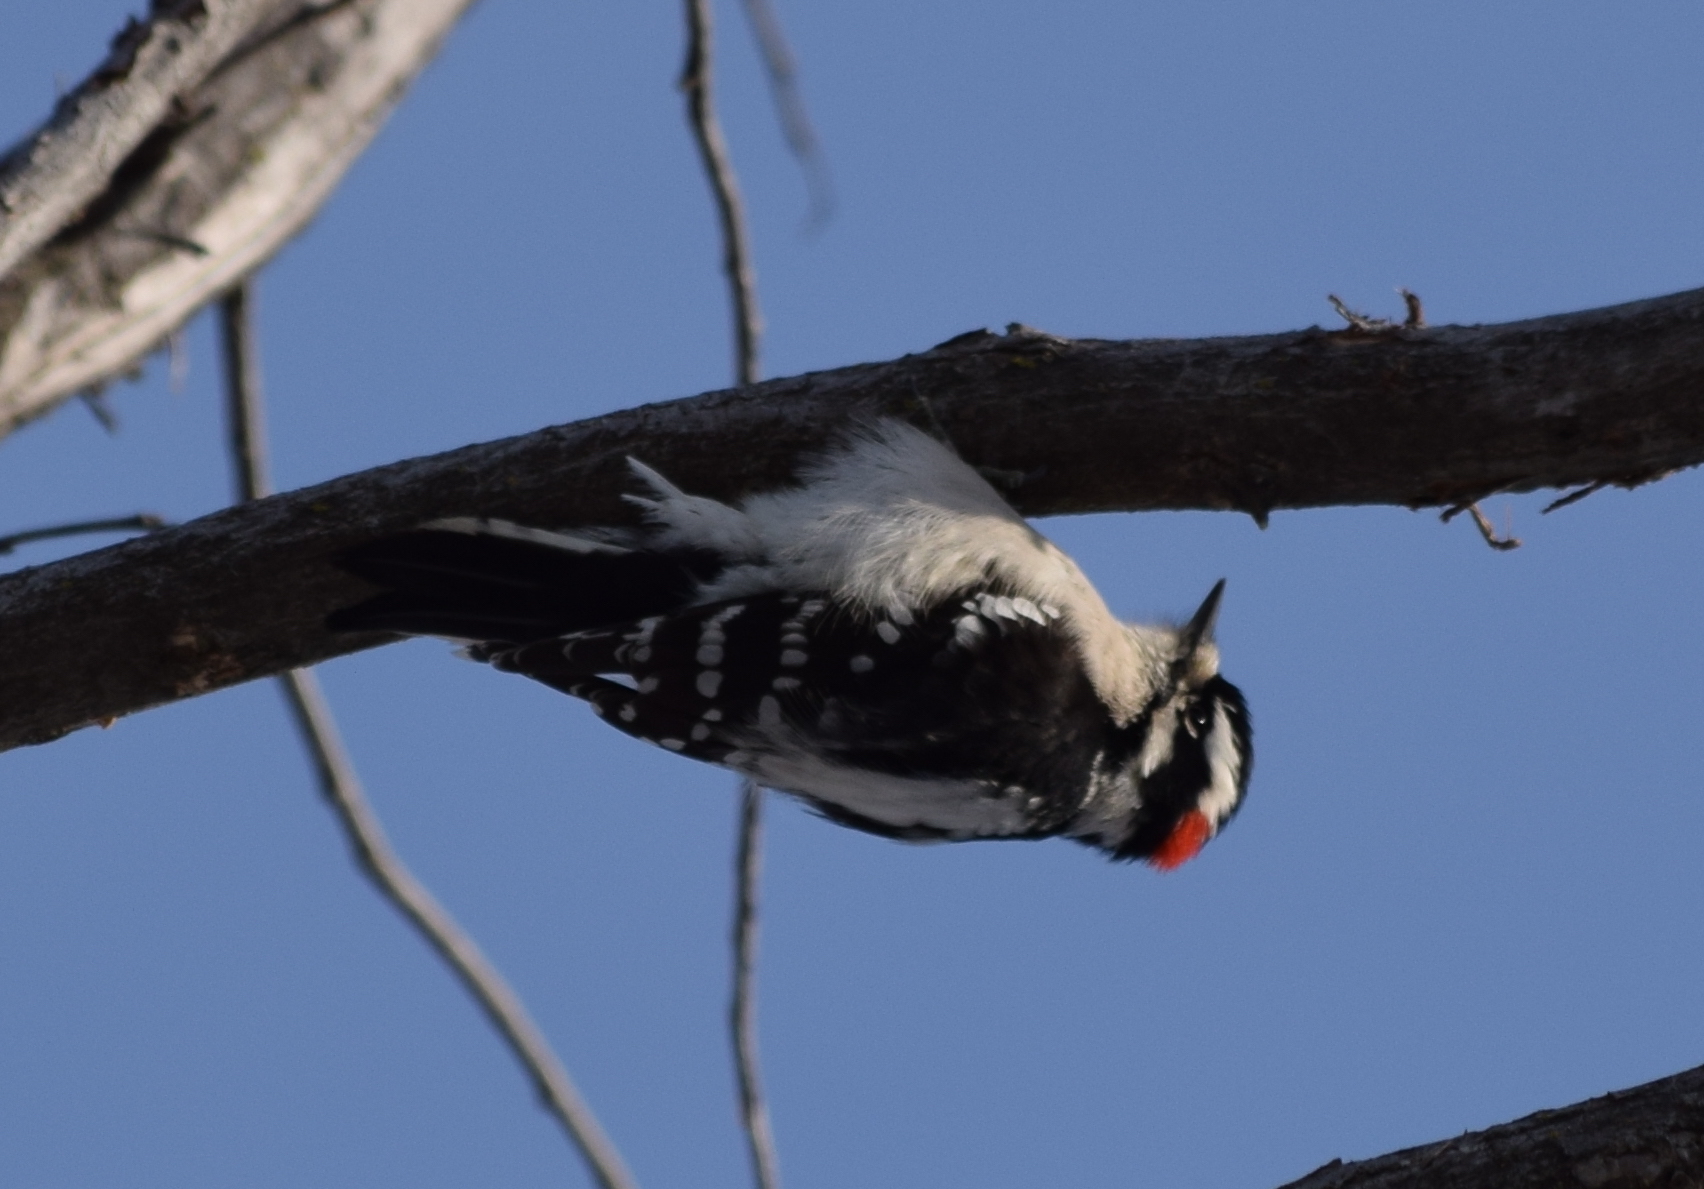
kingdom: Animalia
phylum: Chordata
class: Aves
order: Piciformes
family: Picidae
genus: Dryobates
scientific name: Dryobates pubescens
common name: Downy woodpecker
